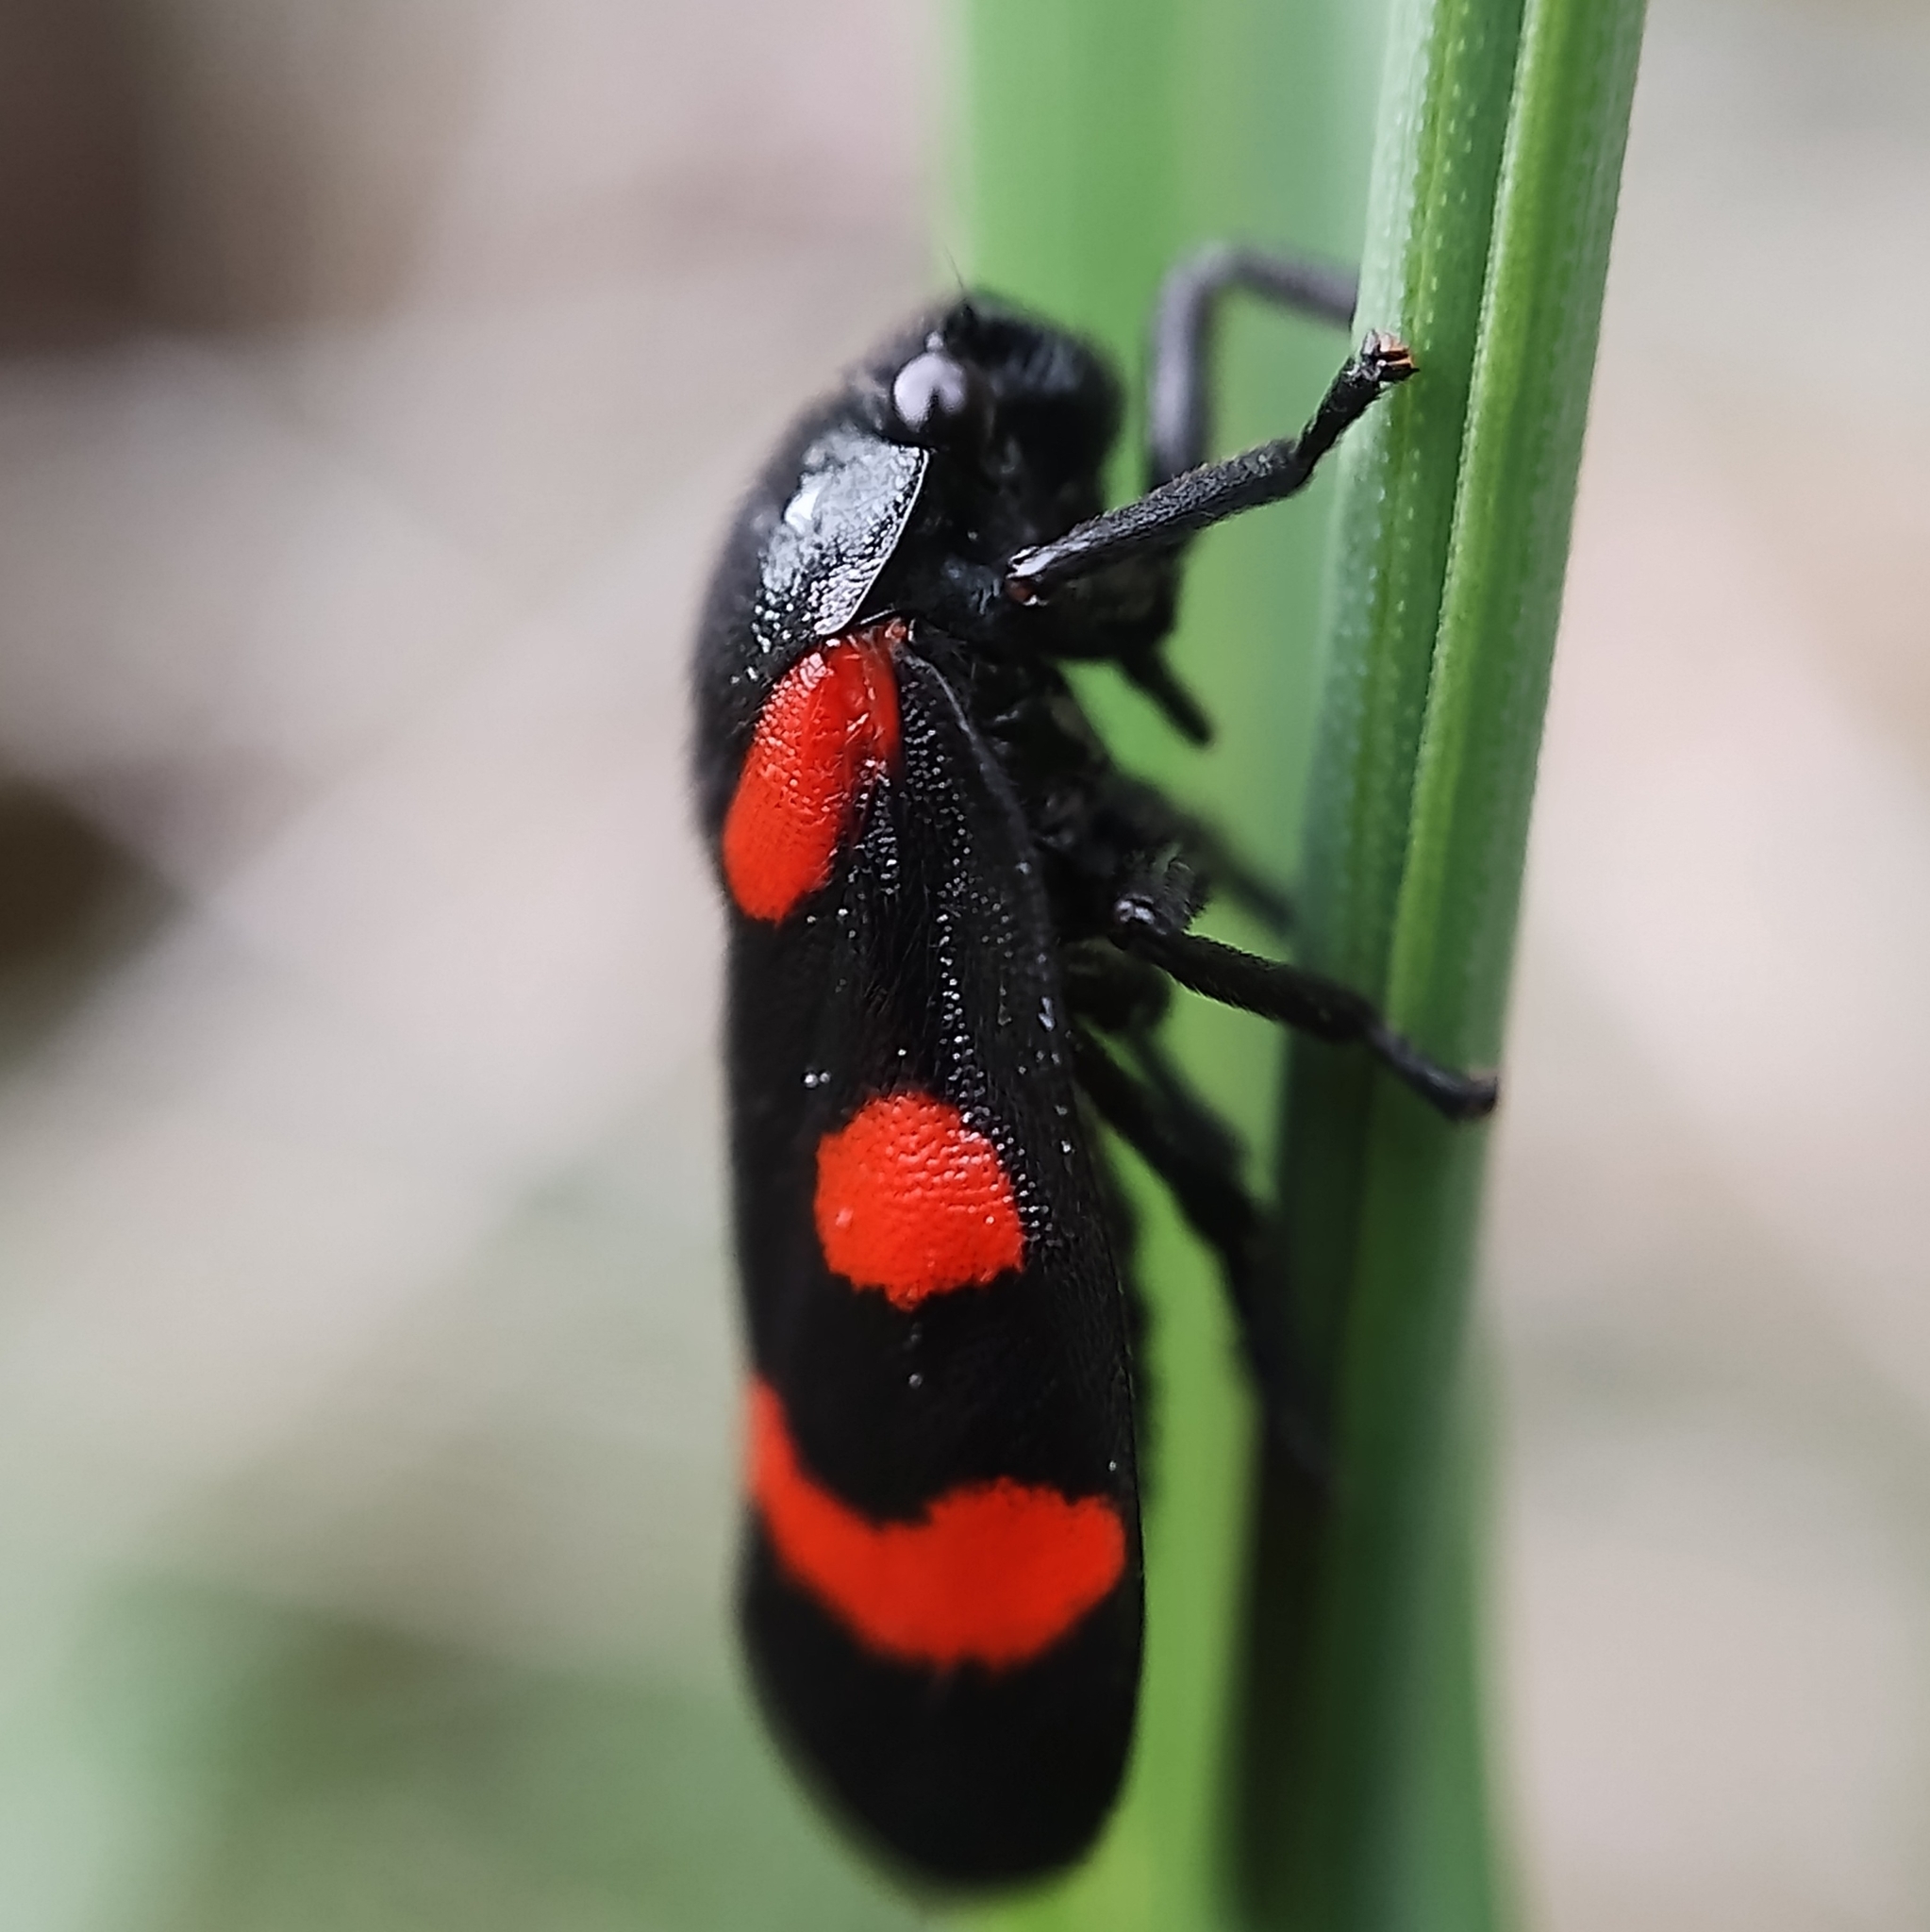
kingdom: Animalia
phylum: Arthropoda
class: Insecta
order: Hemiptera
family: Cercopidae
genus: Cercopis
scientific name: Cercopis arcuata
